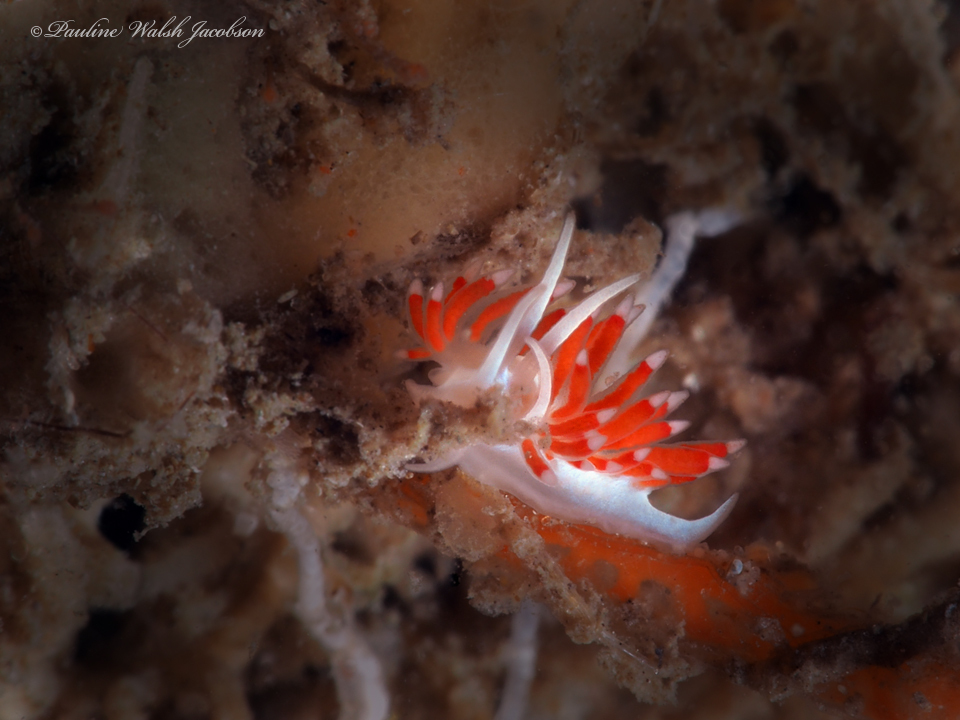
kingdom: Animalia
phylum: Mollusca
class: Gastropoda
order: Nudibranchia
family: Flabellinidae
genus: Flabellina
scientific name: Flabellina dushia
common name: Dushia flabellina
